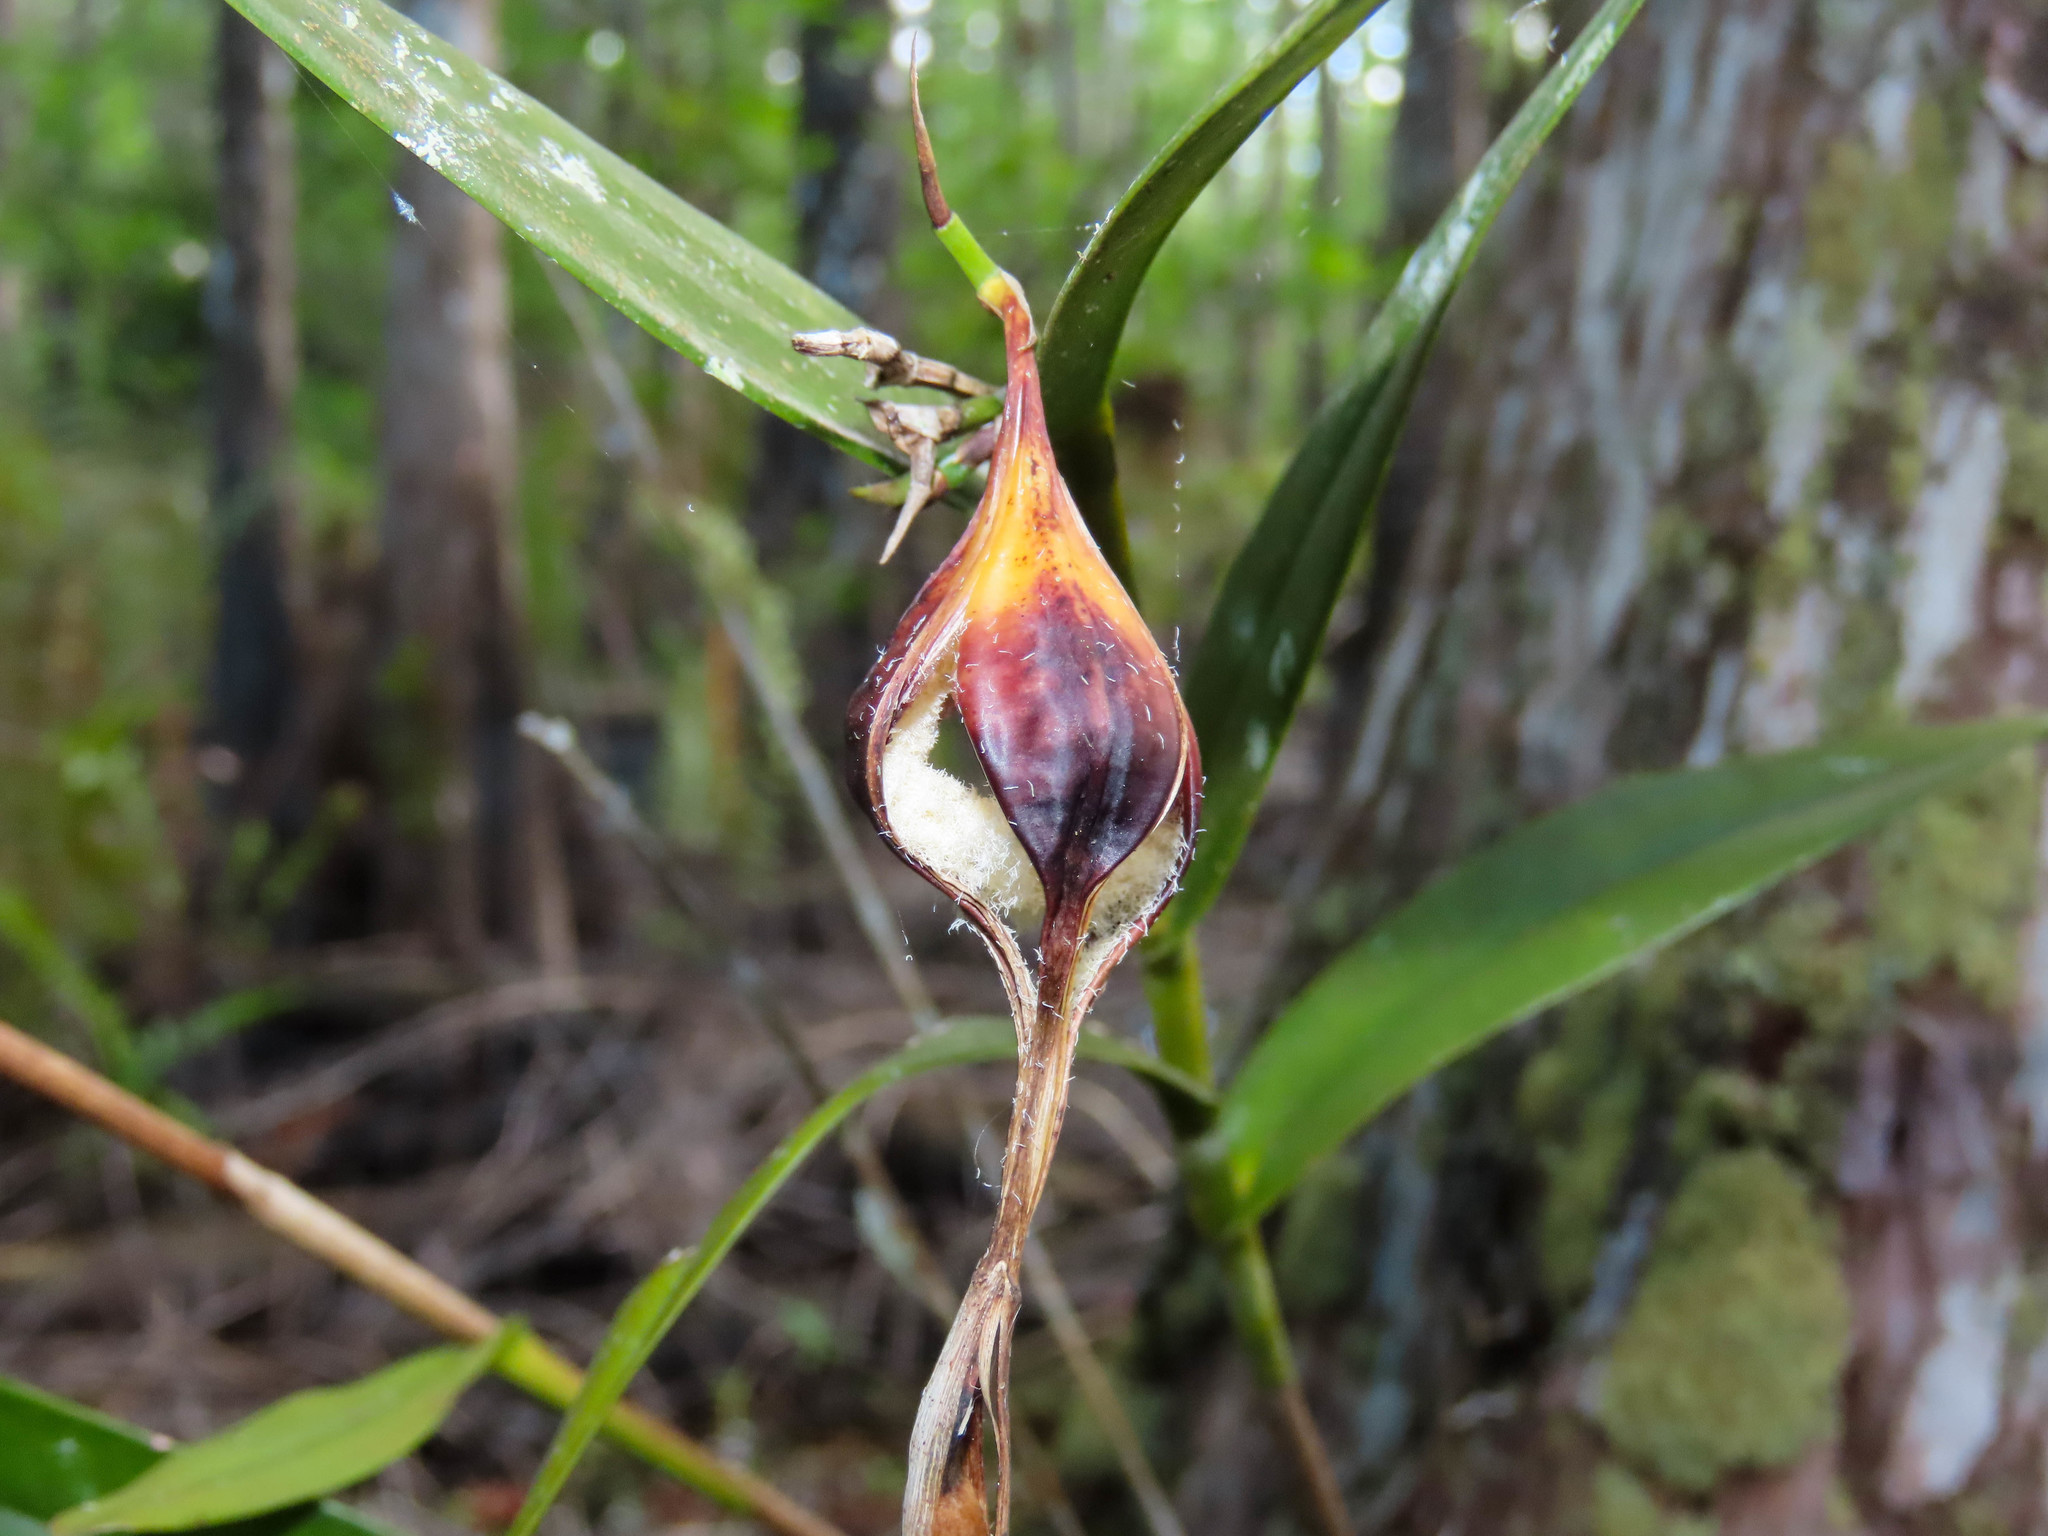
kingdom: Plantae
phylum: Tracheophyta
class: Liliopsida
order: Asparagales
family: Orchidaceae
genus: Epidendrum
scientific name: Epidendrum nocturnum
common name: Night scented orchid
